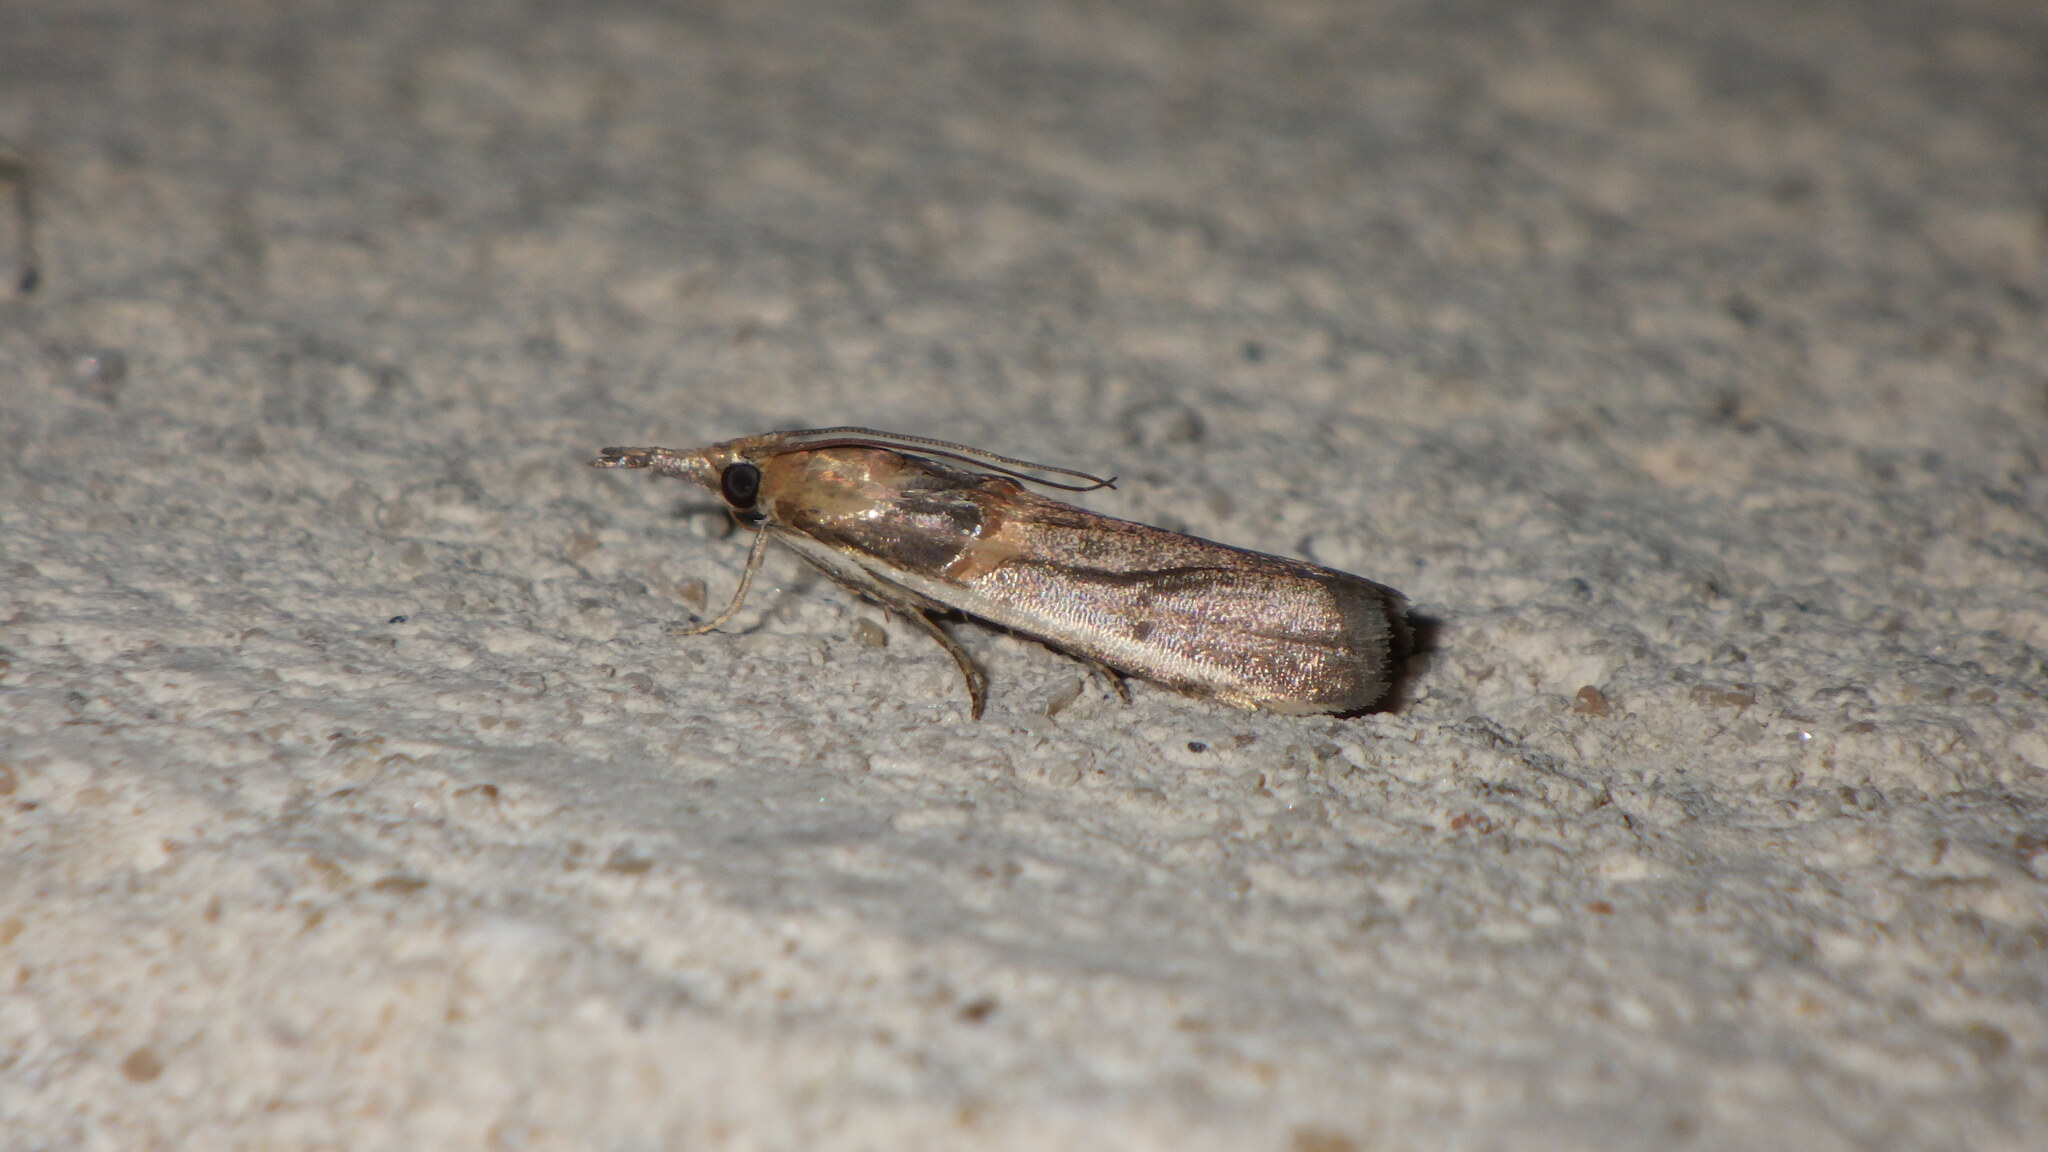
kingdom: Animalia
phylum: Arthropoda
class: Insecta
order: Lepidoptera
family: Pyralidae
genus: Etiella
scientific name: Etiella zinckenella
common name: Gold-banded etiella moth
